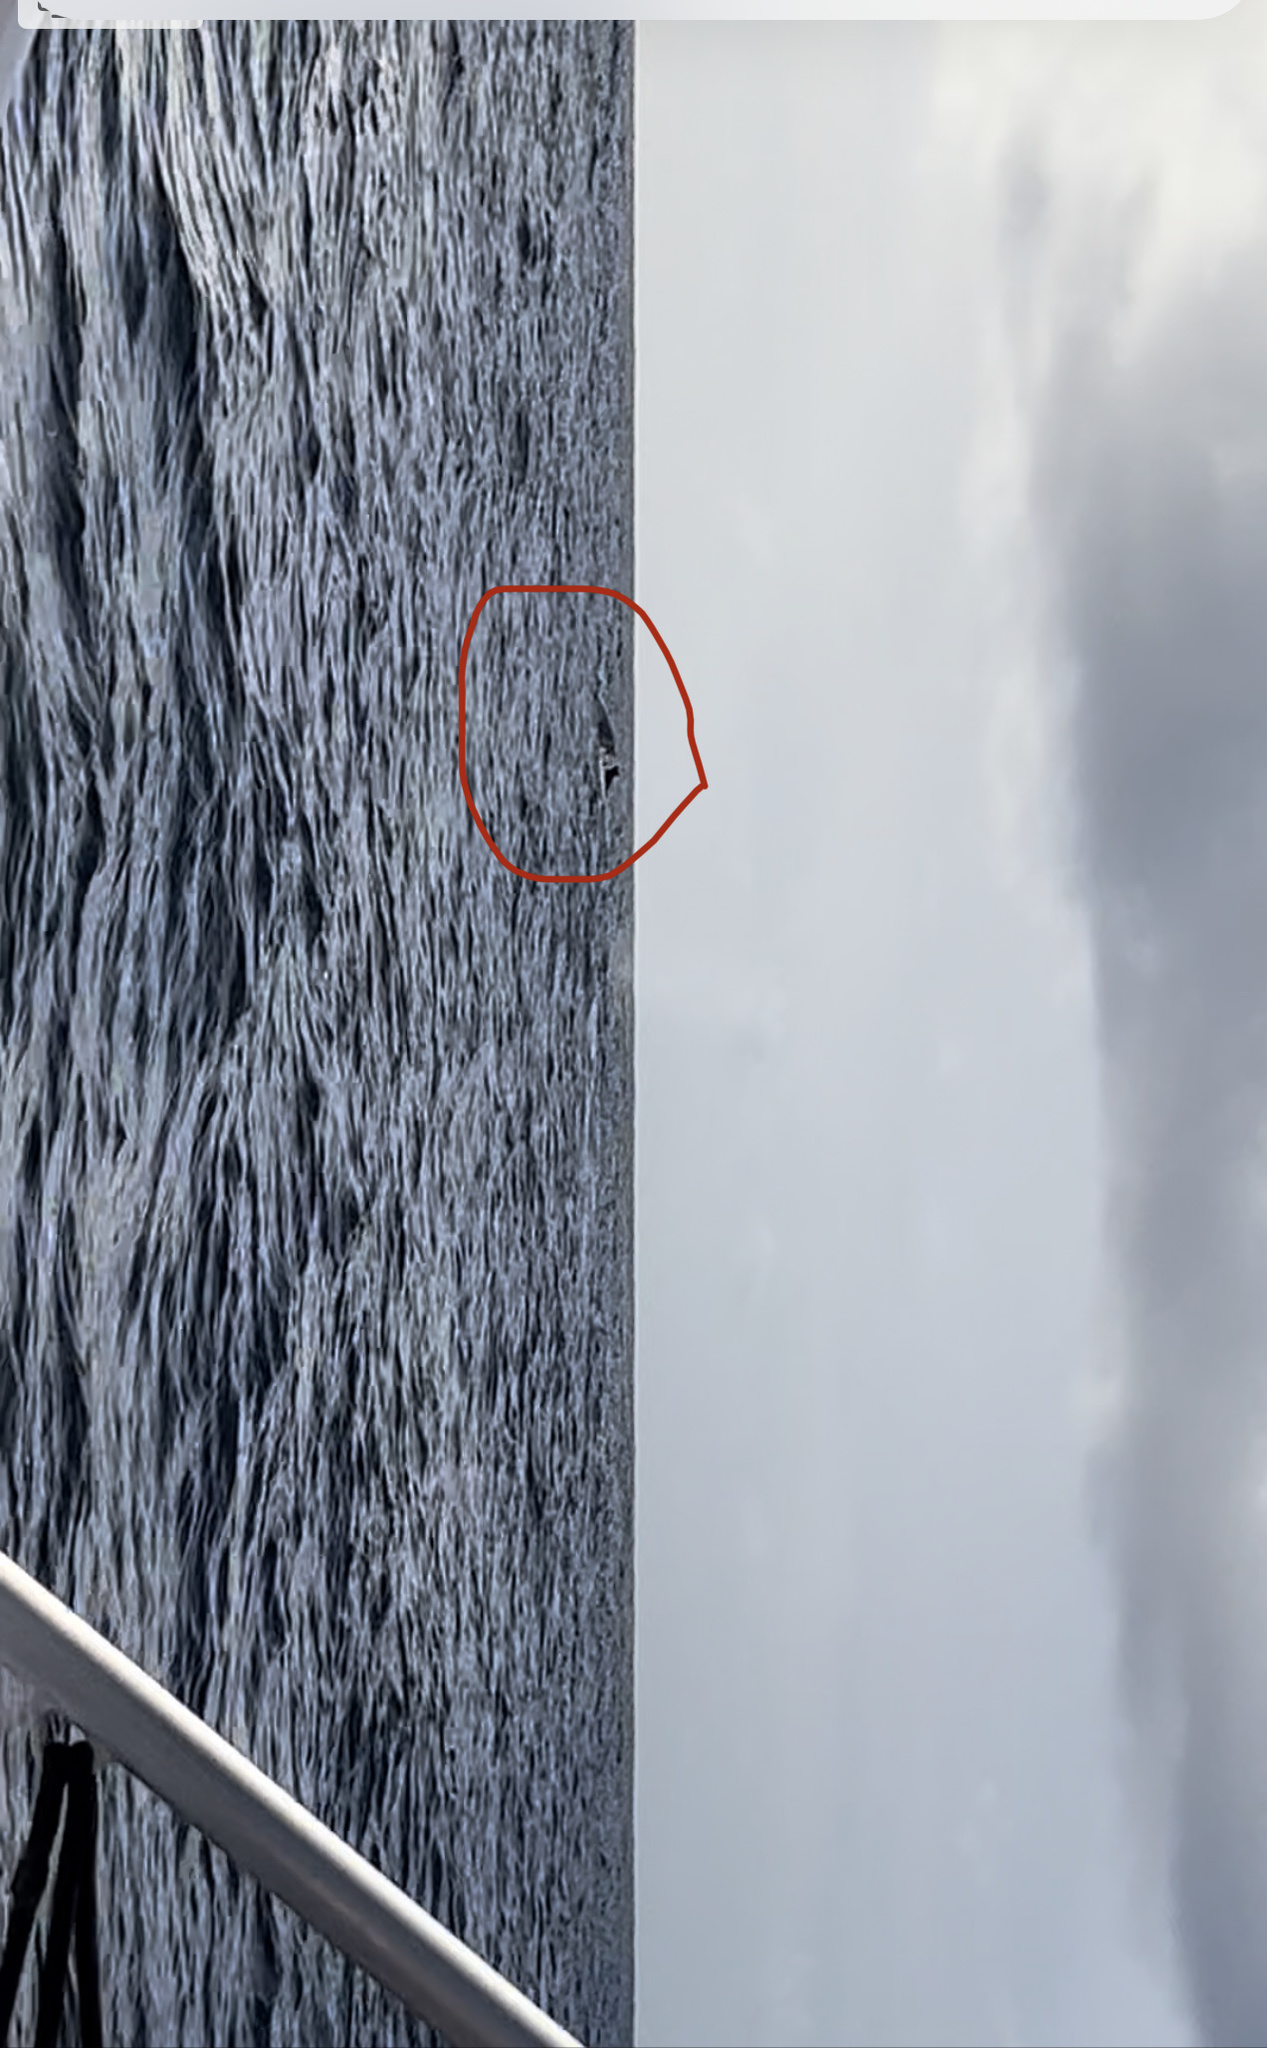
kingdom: Animalia
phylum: Chordata
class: Mammalia
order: Cetacea
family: Balaenopteridae
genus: Megaptera
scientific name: Megaptera novaeangliae
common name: Humpback whale
